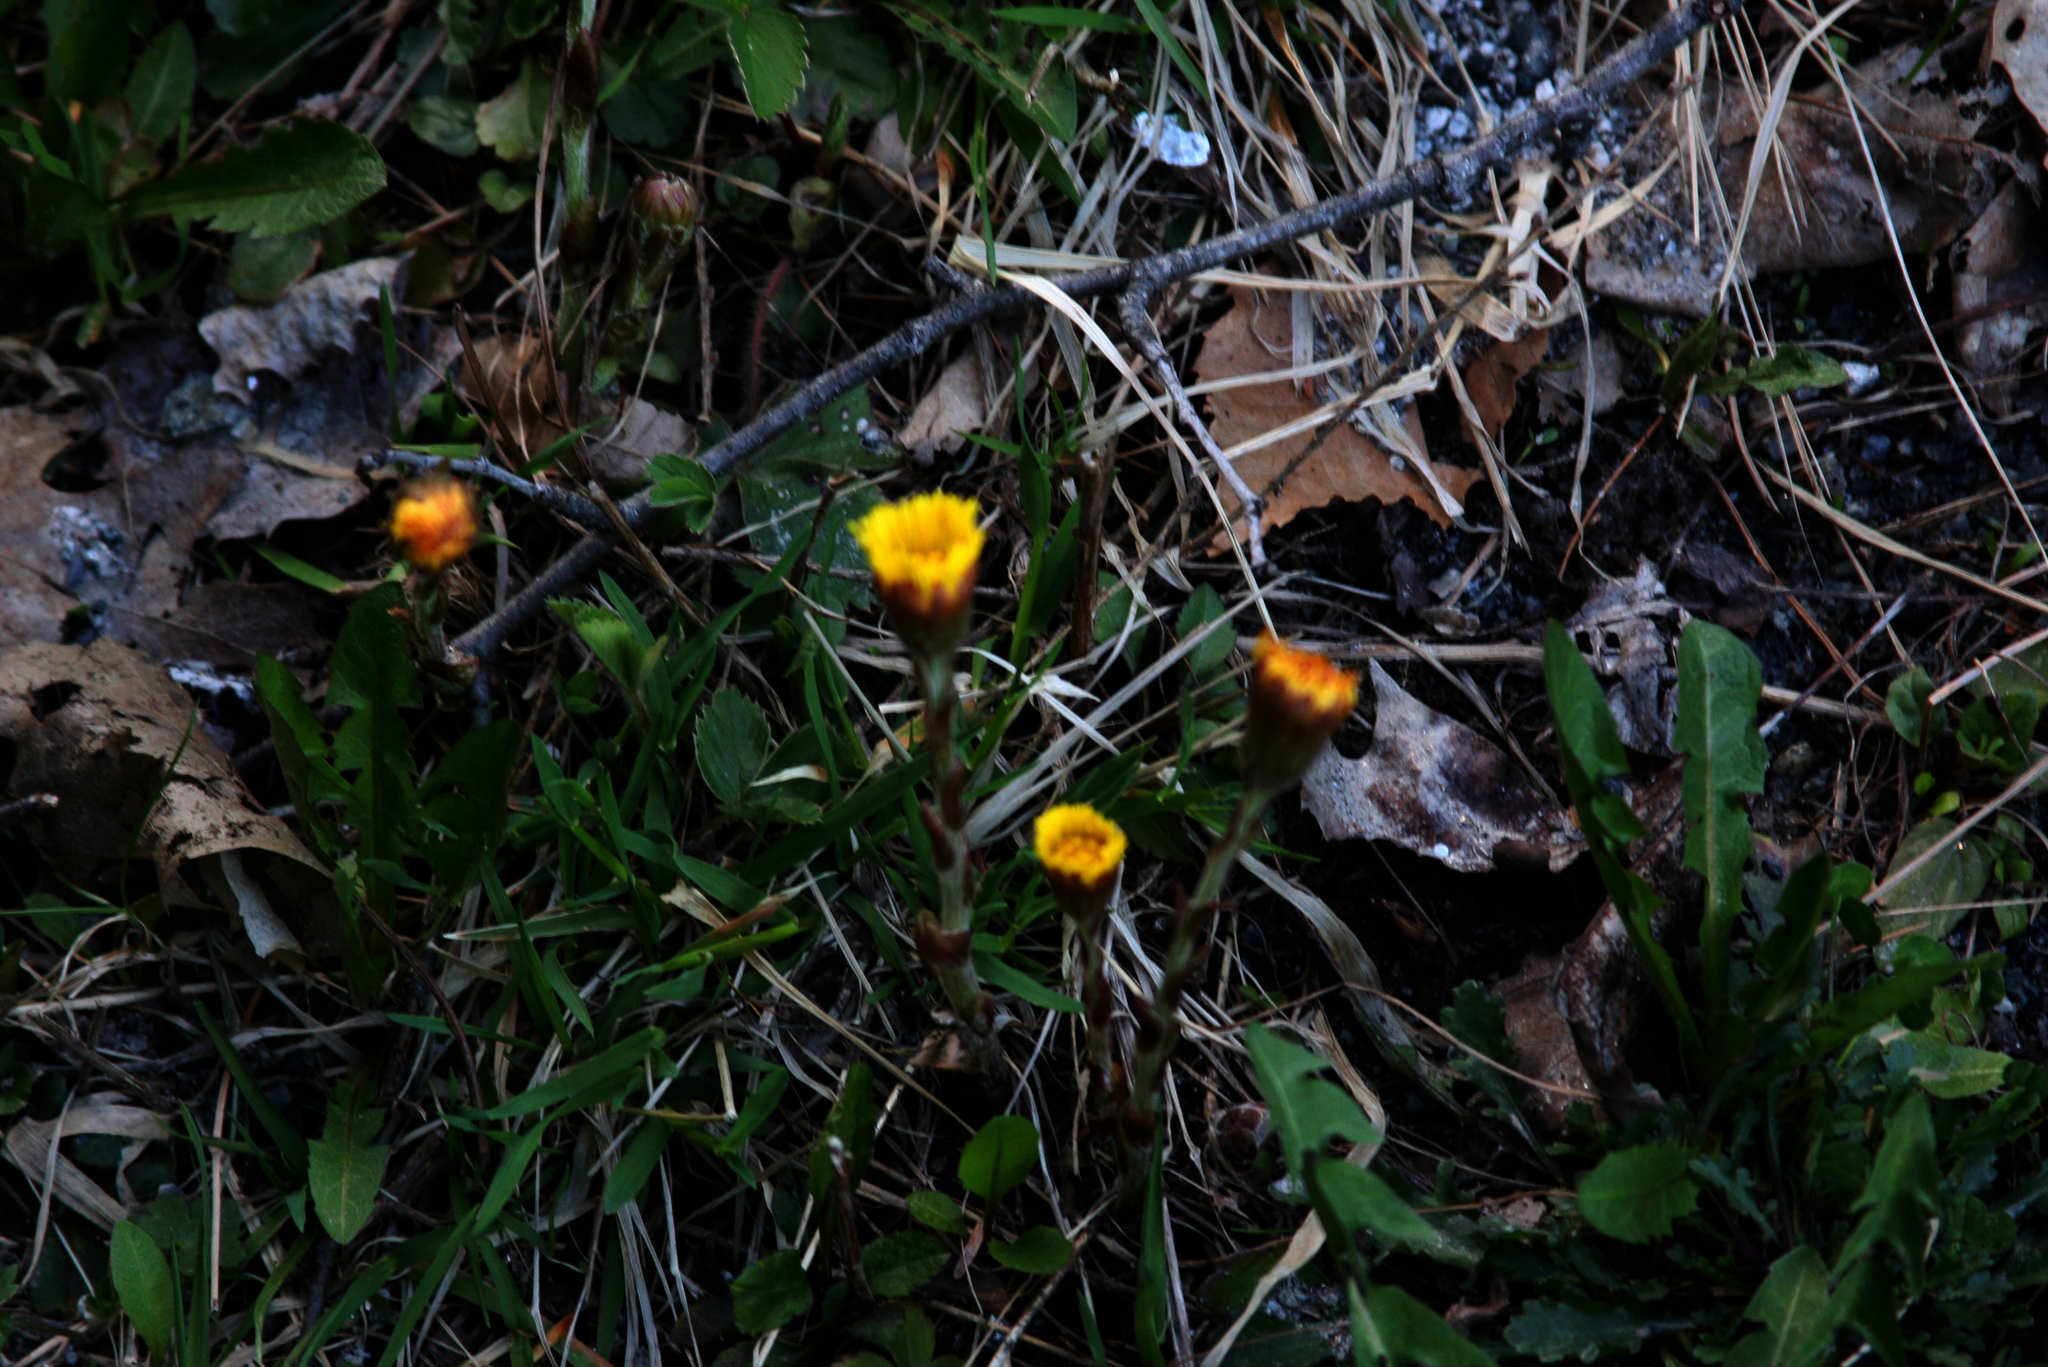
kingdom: Plantae
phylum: Tracheophyta
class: Magnoliopsida
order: Asterales
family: Asteraceae
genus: Tussilago
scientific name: Tussilago farfara
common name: Coltsfoot
